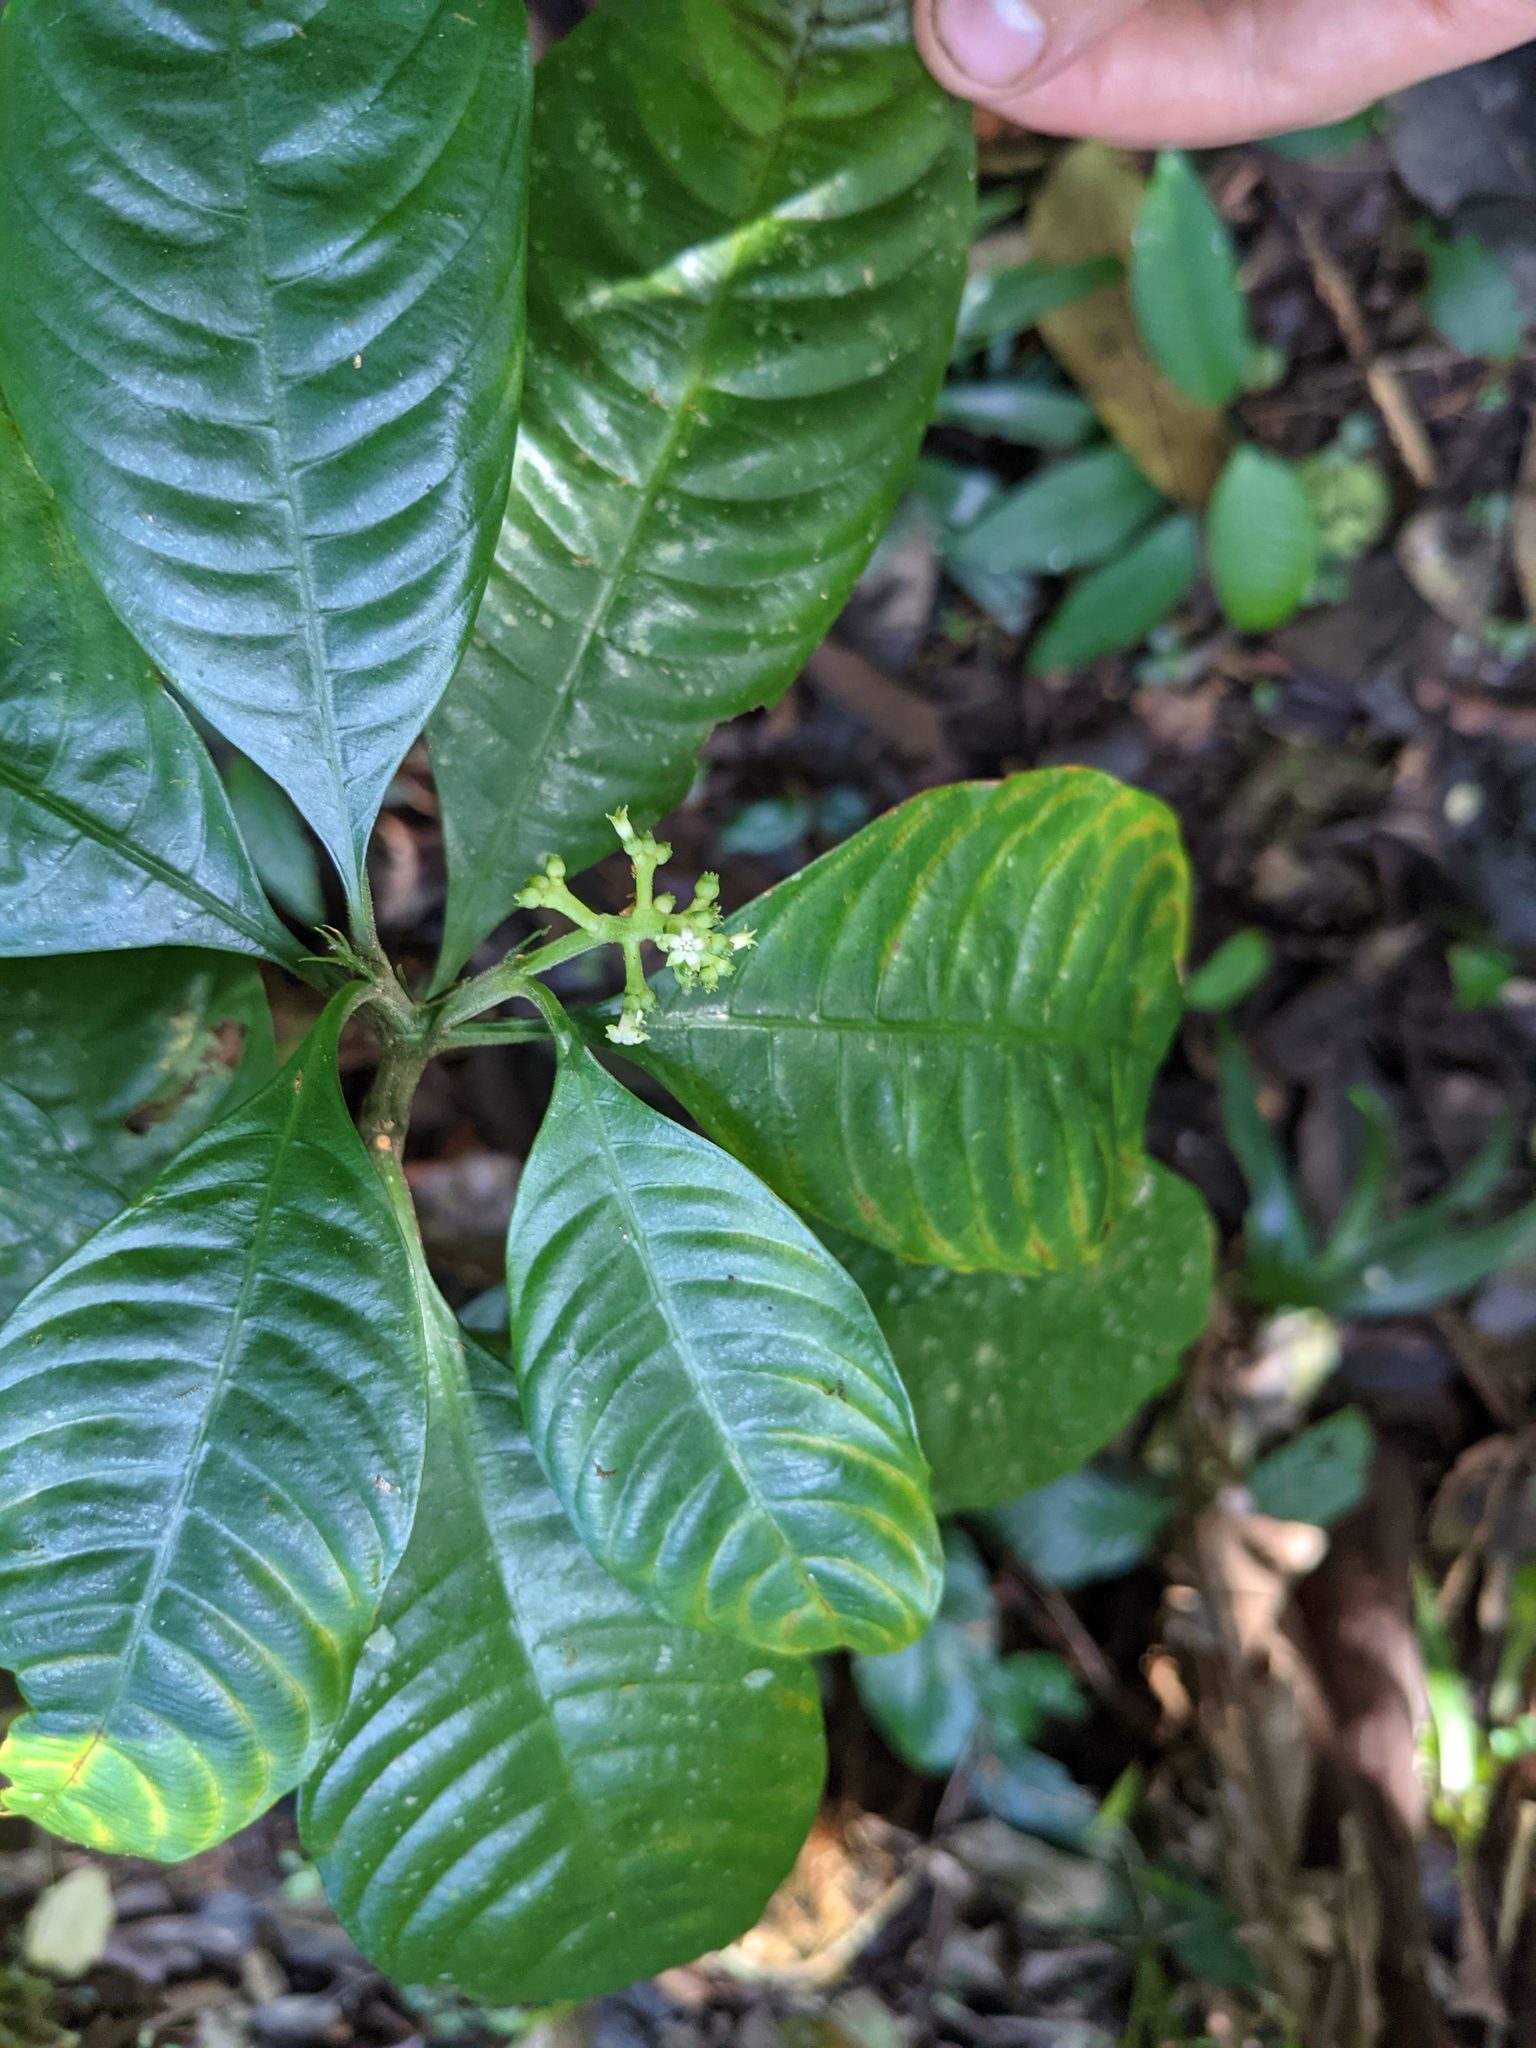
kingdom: Plantae
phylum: Tracheophyta
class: Magnoliopsida
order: Gentianales
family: Rubiaceae
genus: Palicourea
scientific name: Palicourea racemosa
